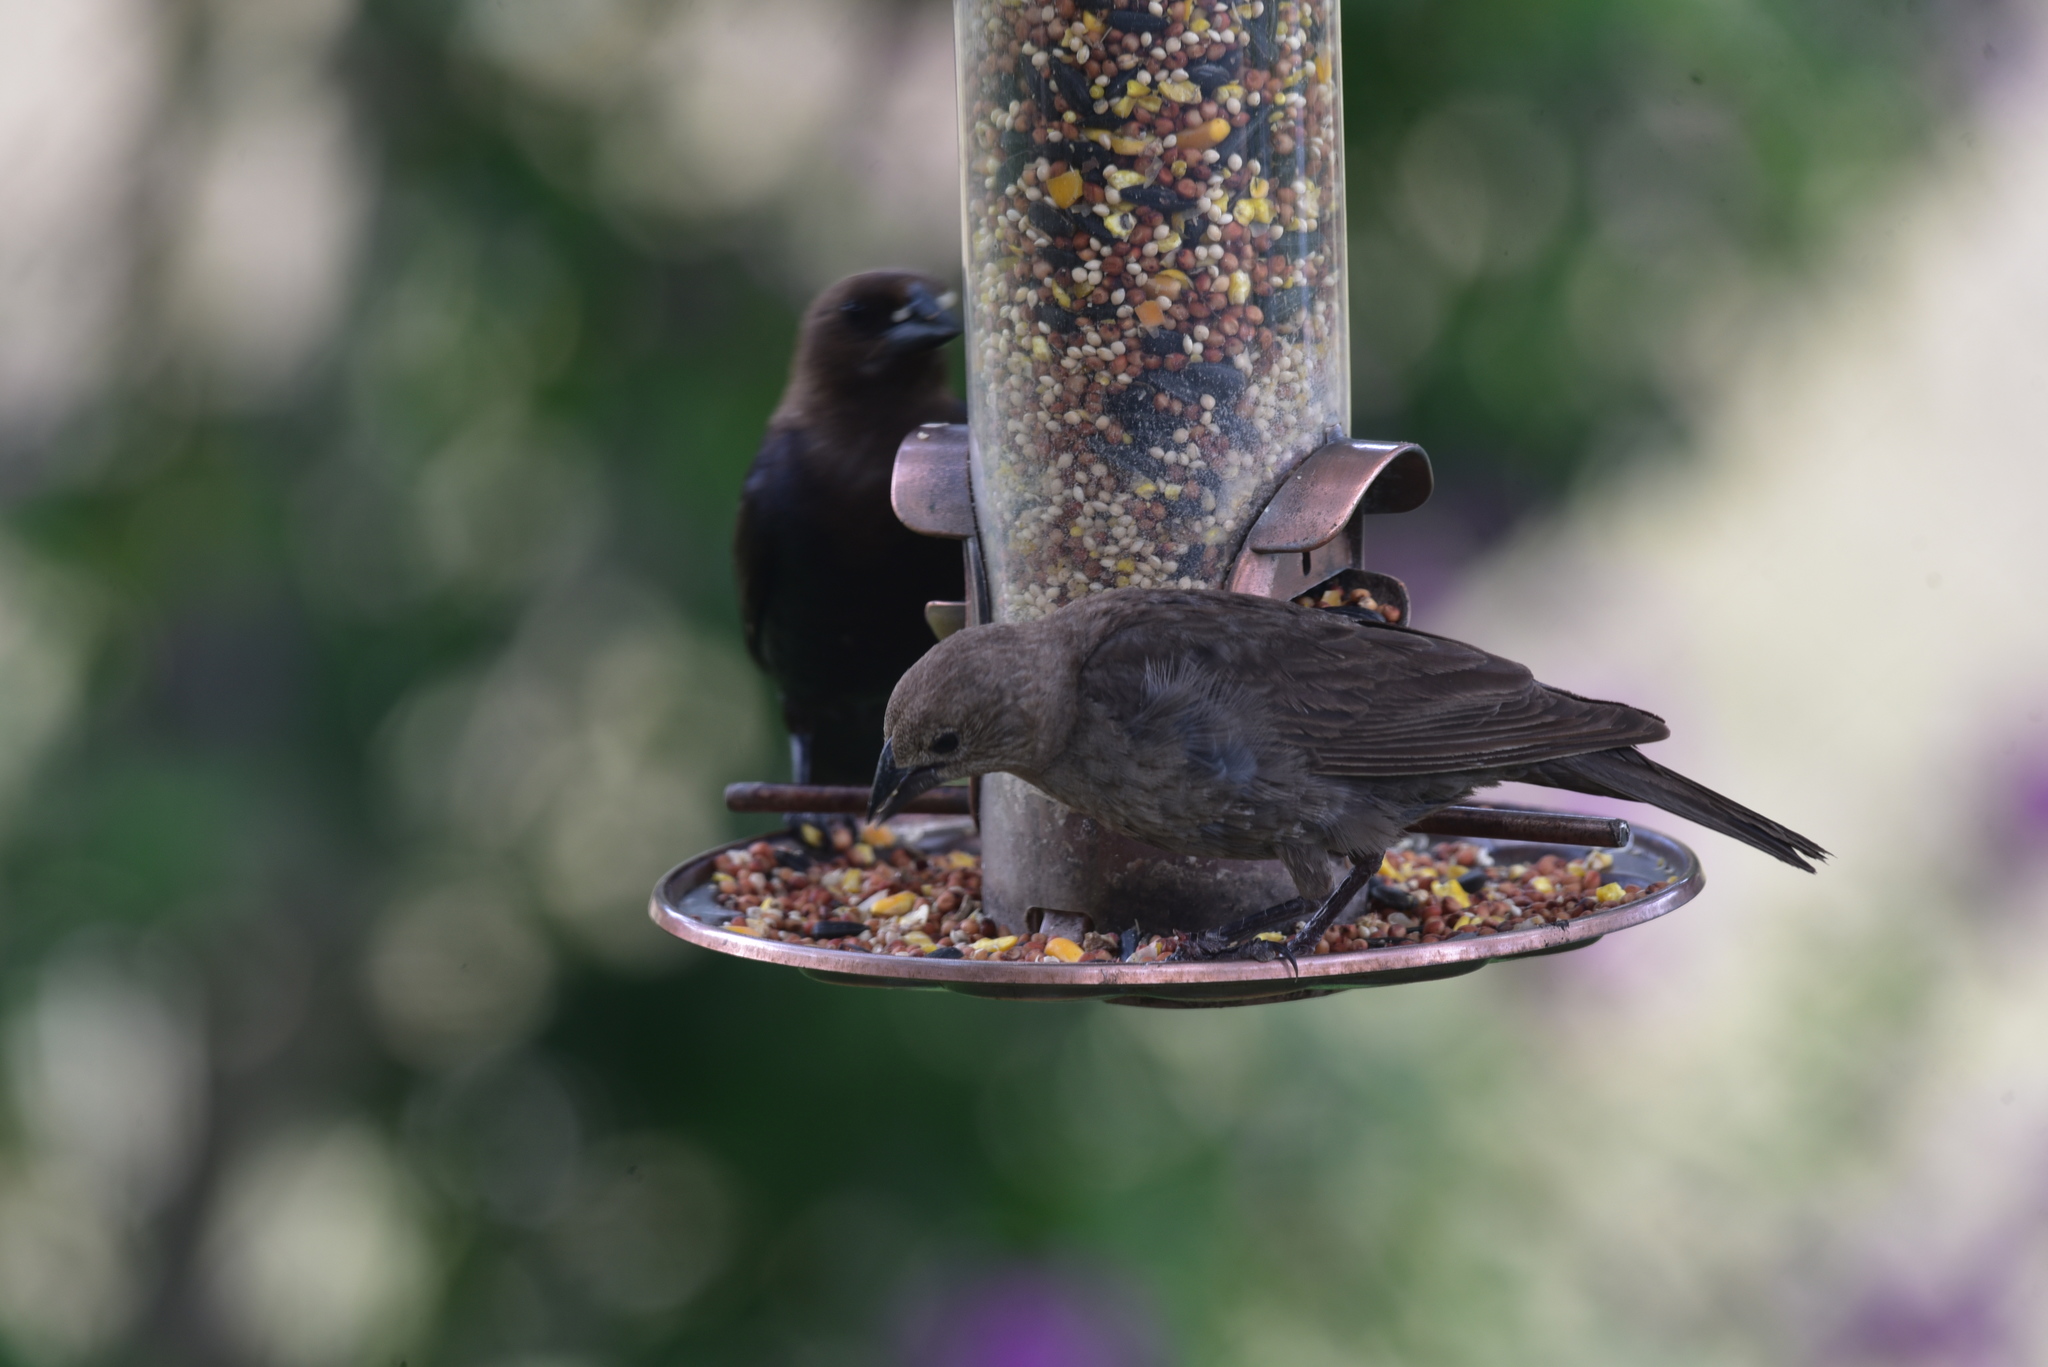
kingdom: Animalia
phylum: Chordata
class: Aves
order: Passeriformes
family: Icteridae
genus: Molothrus
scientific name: Molothrus ater
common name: Brown-headed cowbird
